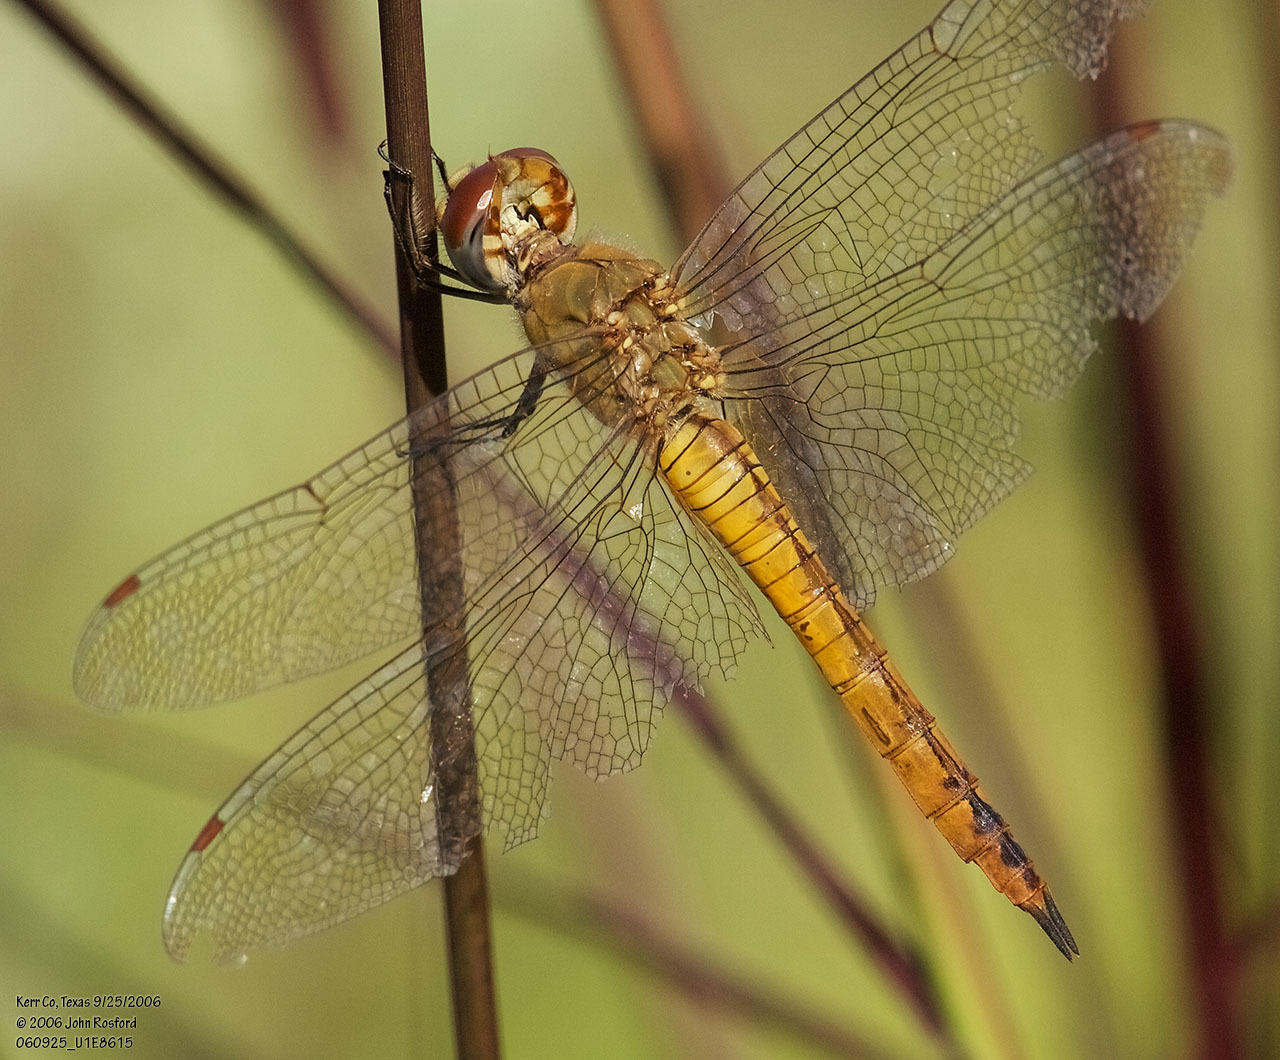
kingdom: Animalia
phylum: Arthropoda
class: Insecta
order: Odonata
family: Libellulidae
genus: Pantala
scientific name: Pantala flavescens
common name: Wandering glider
